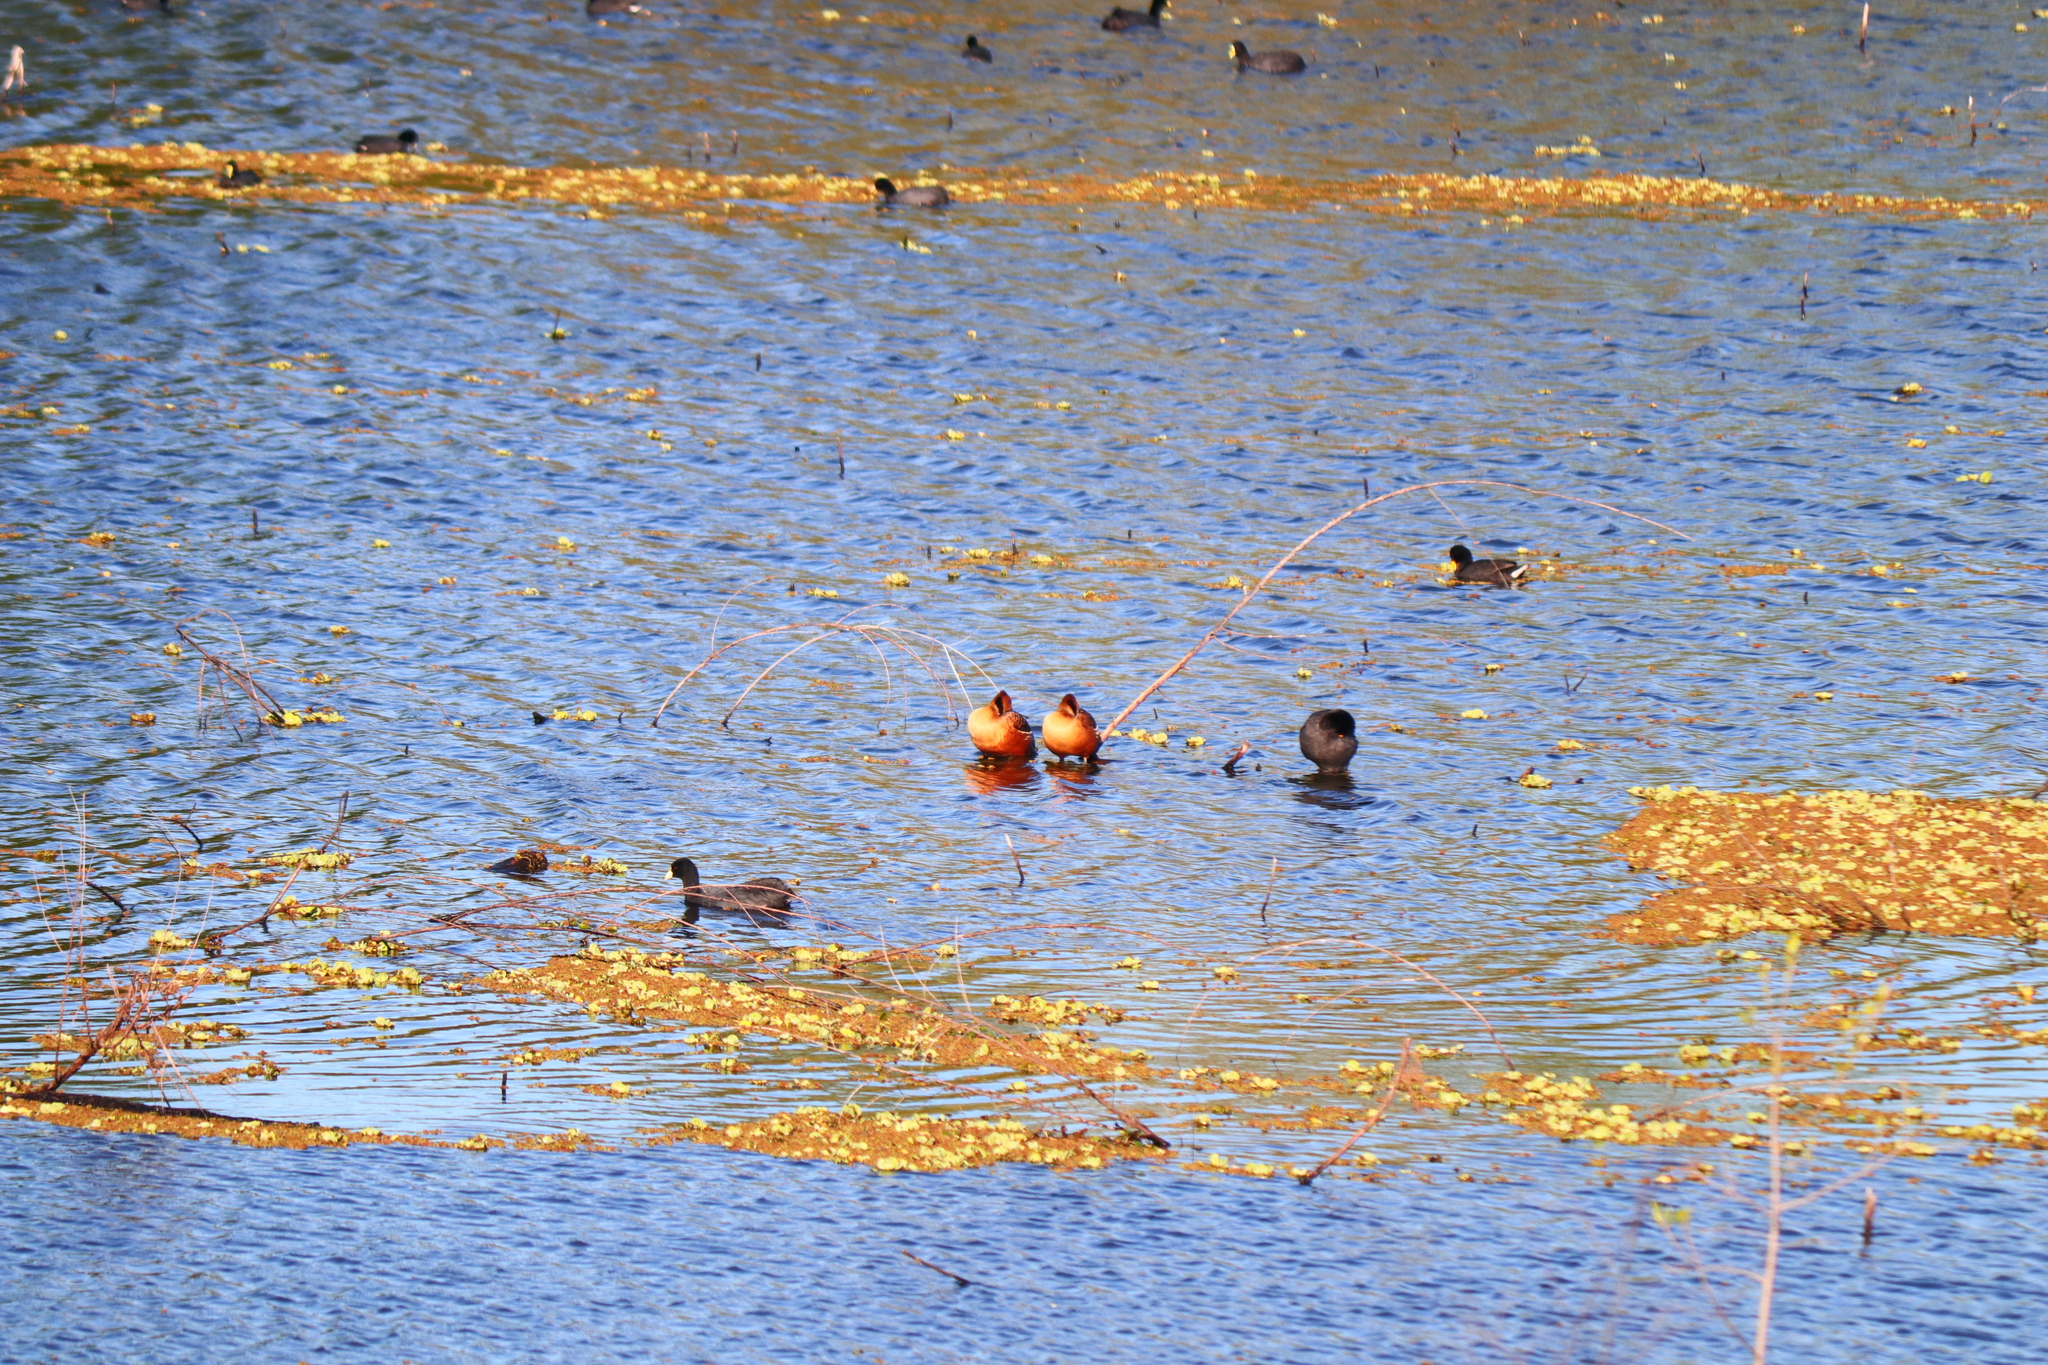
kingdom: Animalia
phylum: Chordata
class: Aves
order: Anseriformes
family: Anatidae
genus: Dendrocygna
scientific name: Dendrocygna bicolor
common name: Fulvous whistling duck
